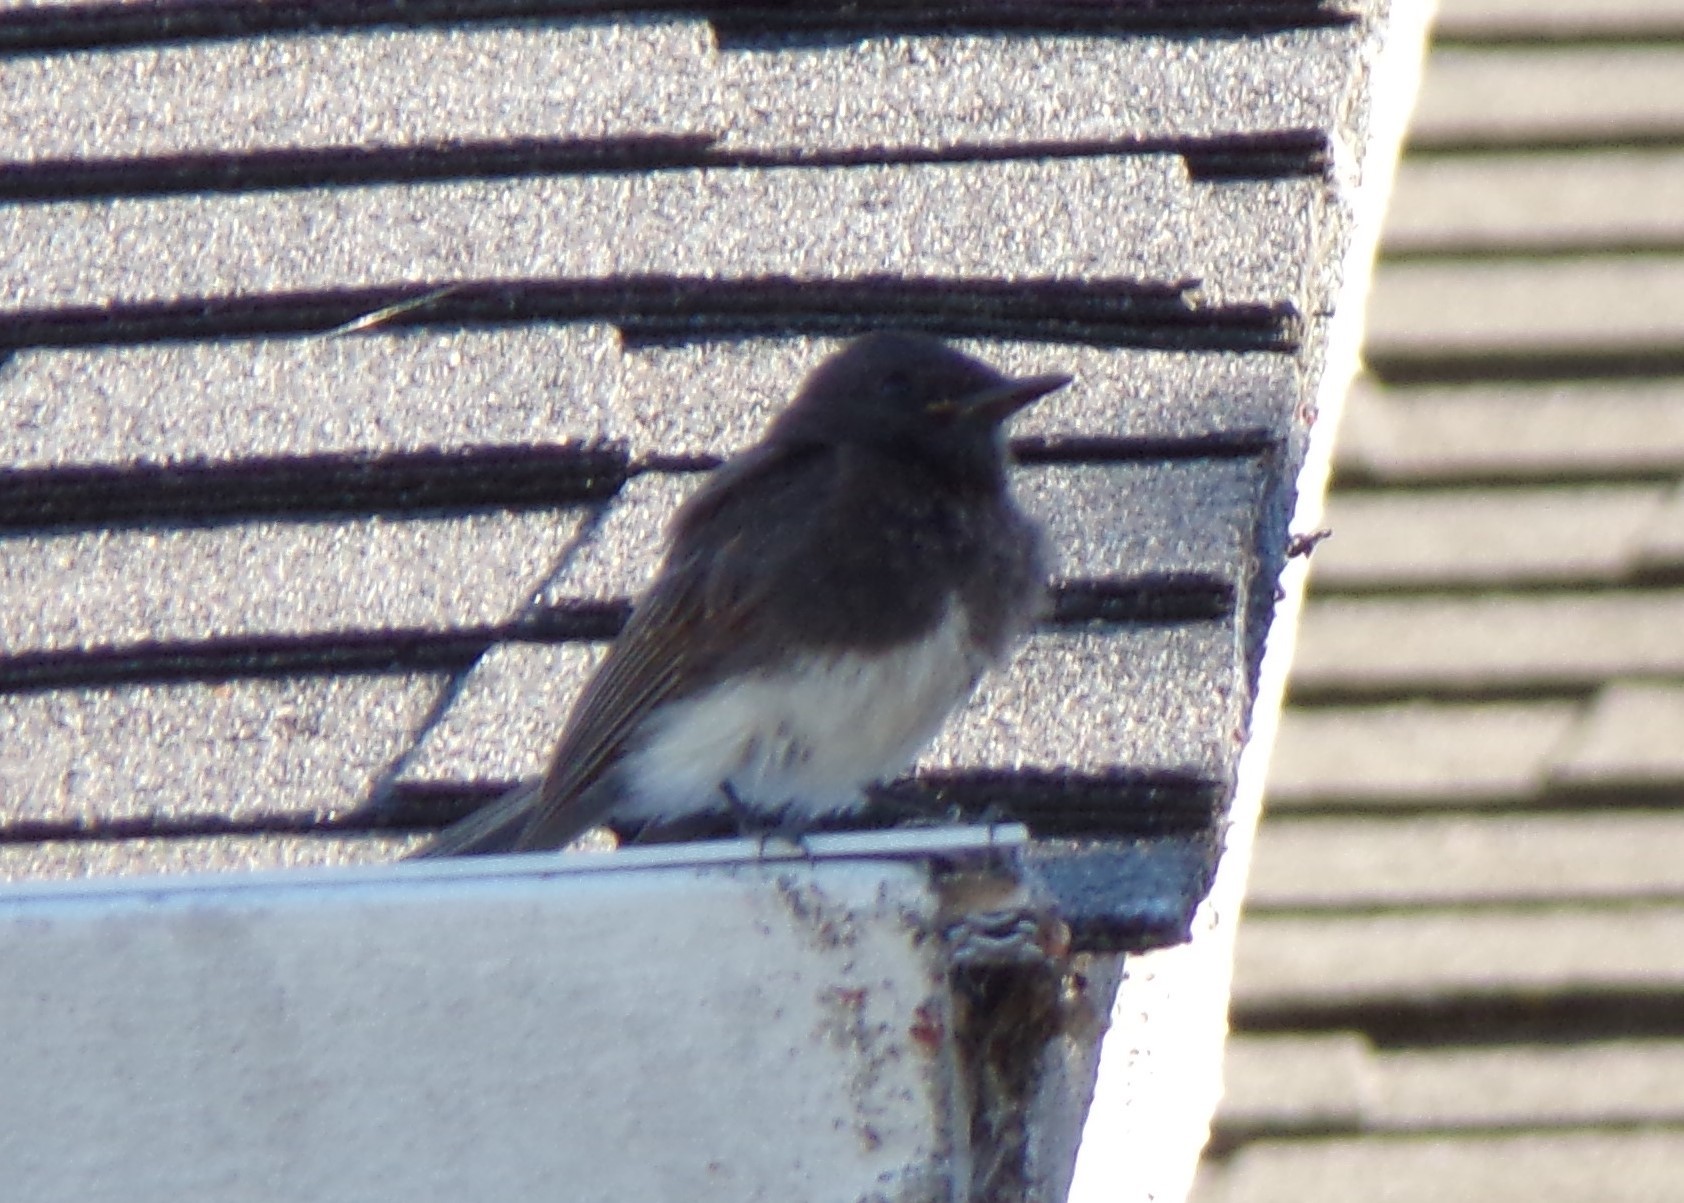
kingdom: Animalia
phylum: Chordata
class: Aves
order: Passeriformes
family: Tyrannidae
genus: Sayornis
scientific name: Sayornis nigricans
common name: Black phoebe
